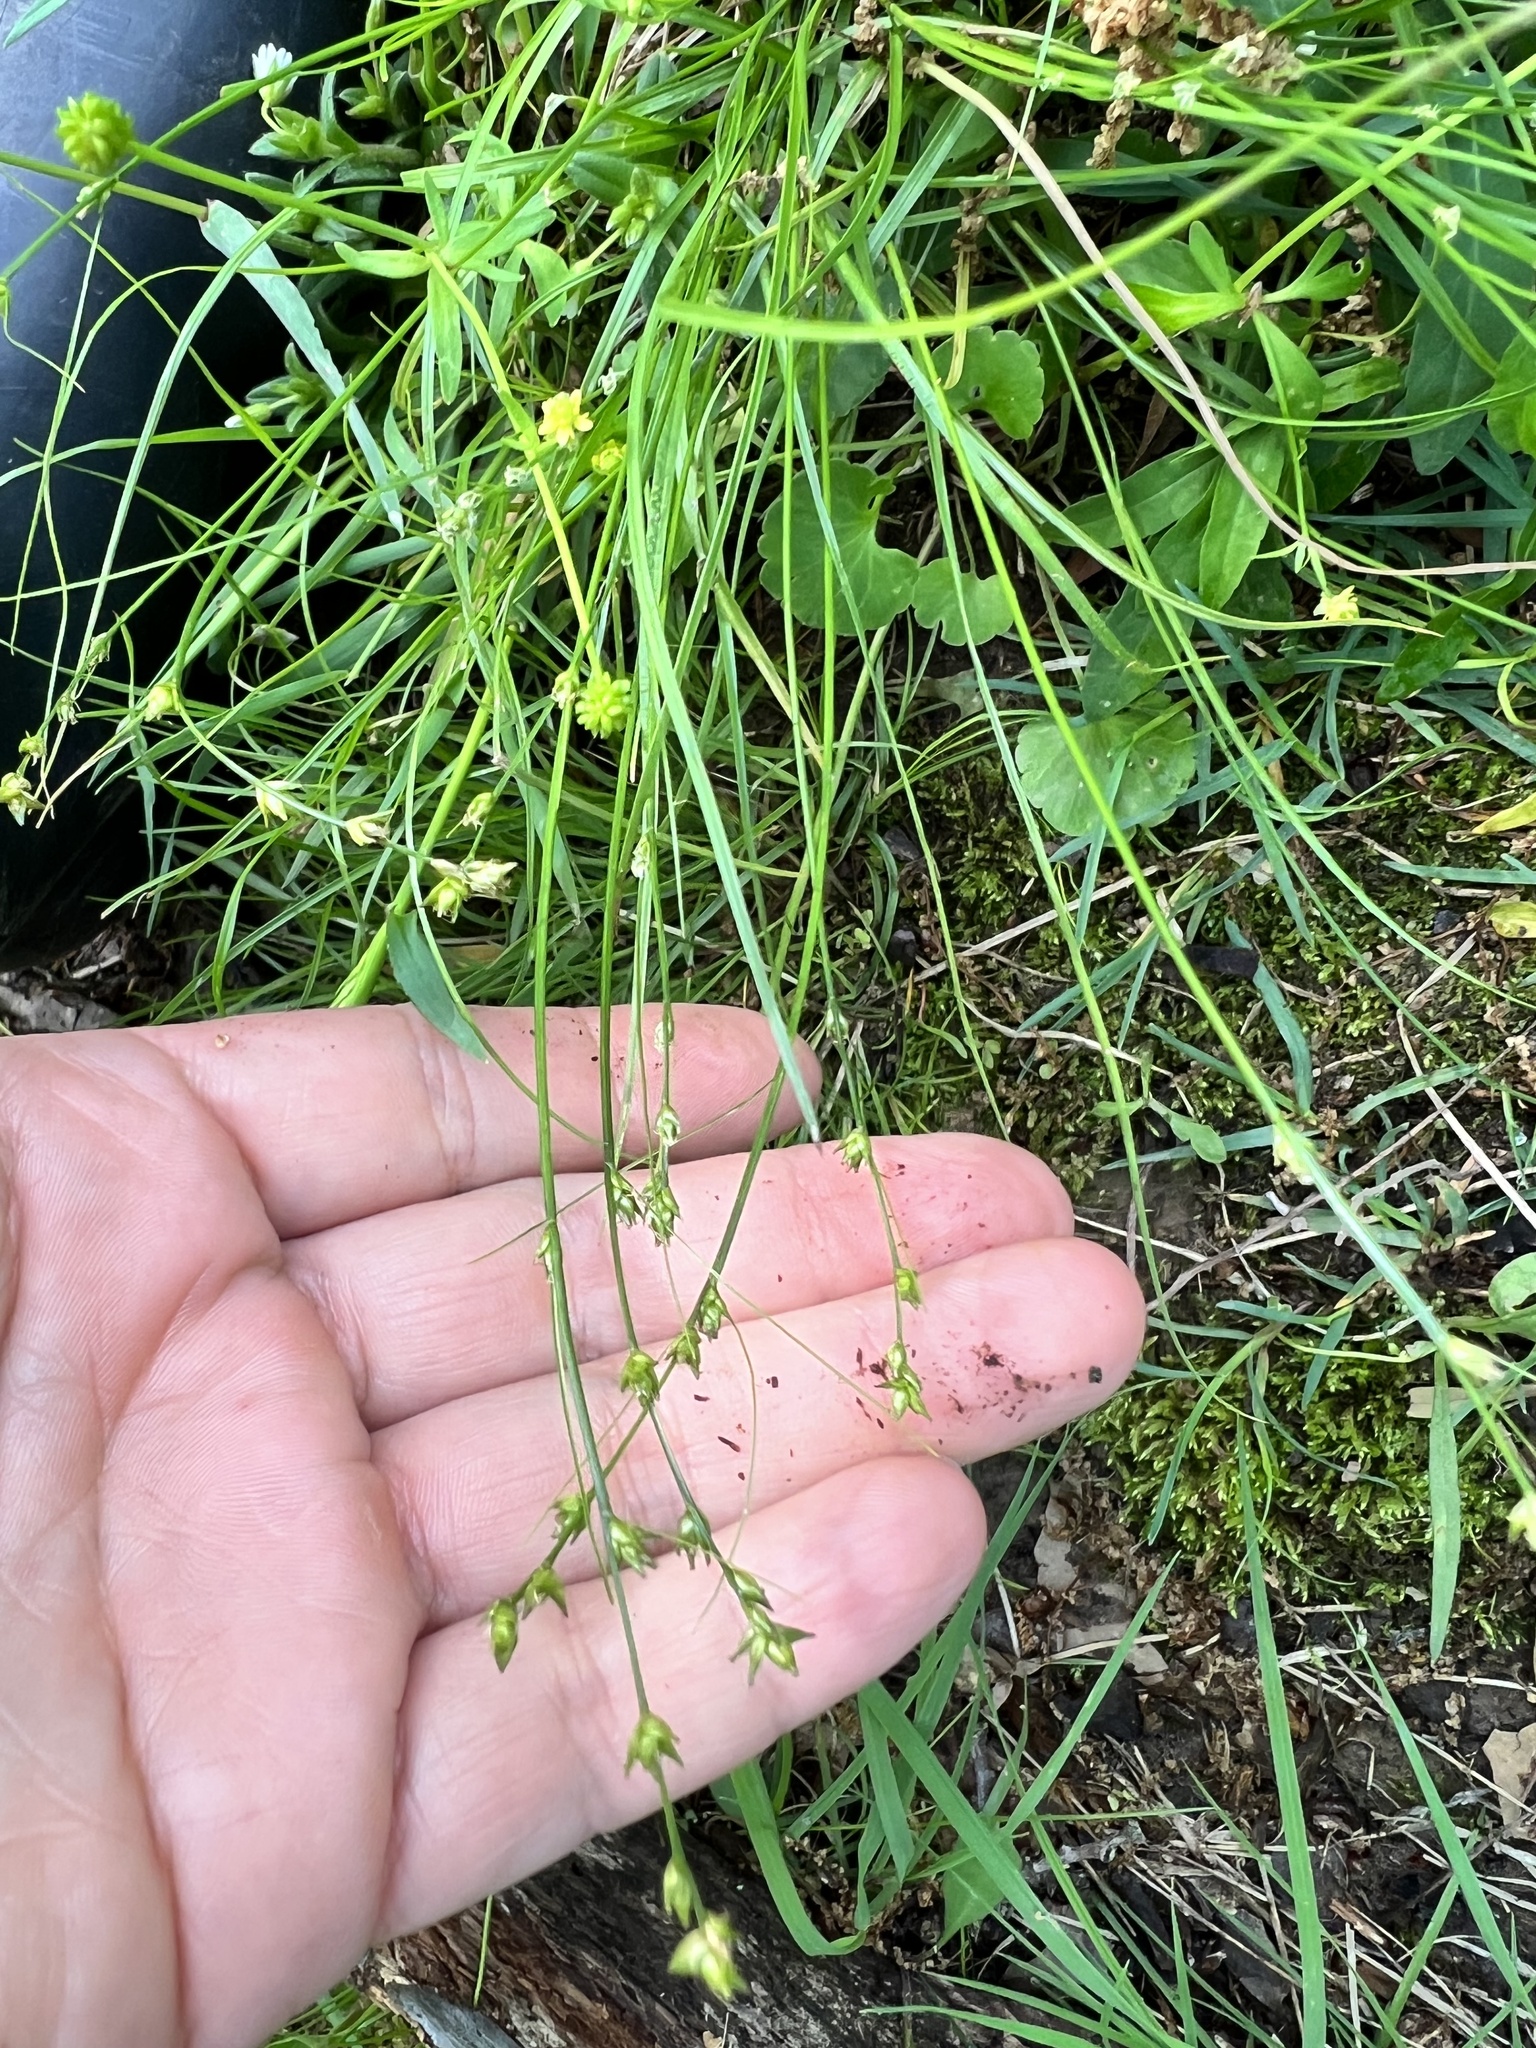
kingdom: Plantae
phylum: Tracheophyta
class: Liliopsida
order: Poales
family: Cyperaceae
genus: Carex
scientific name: Carex radiata
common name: Eastern star sedge
